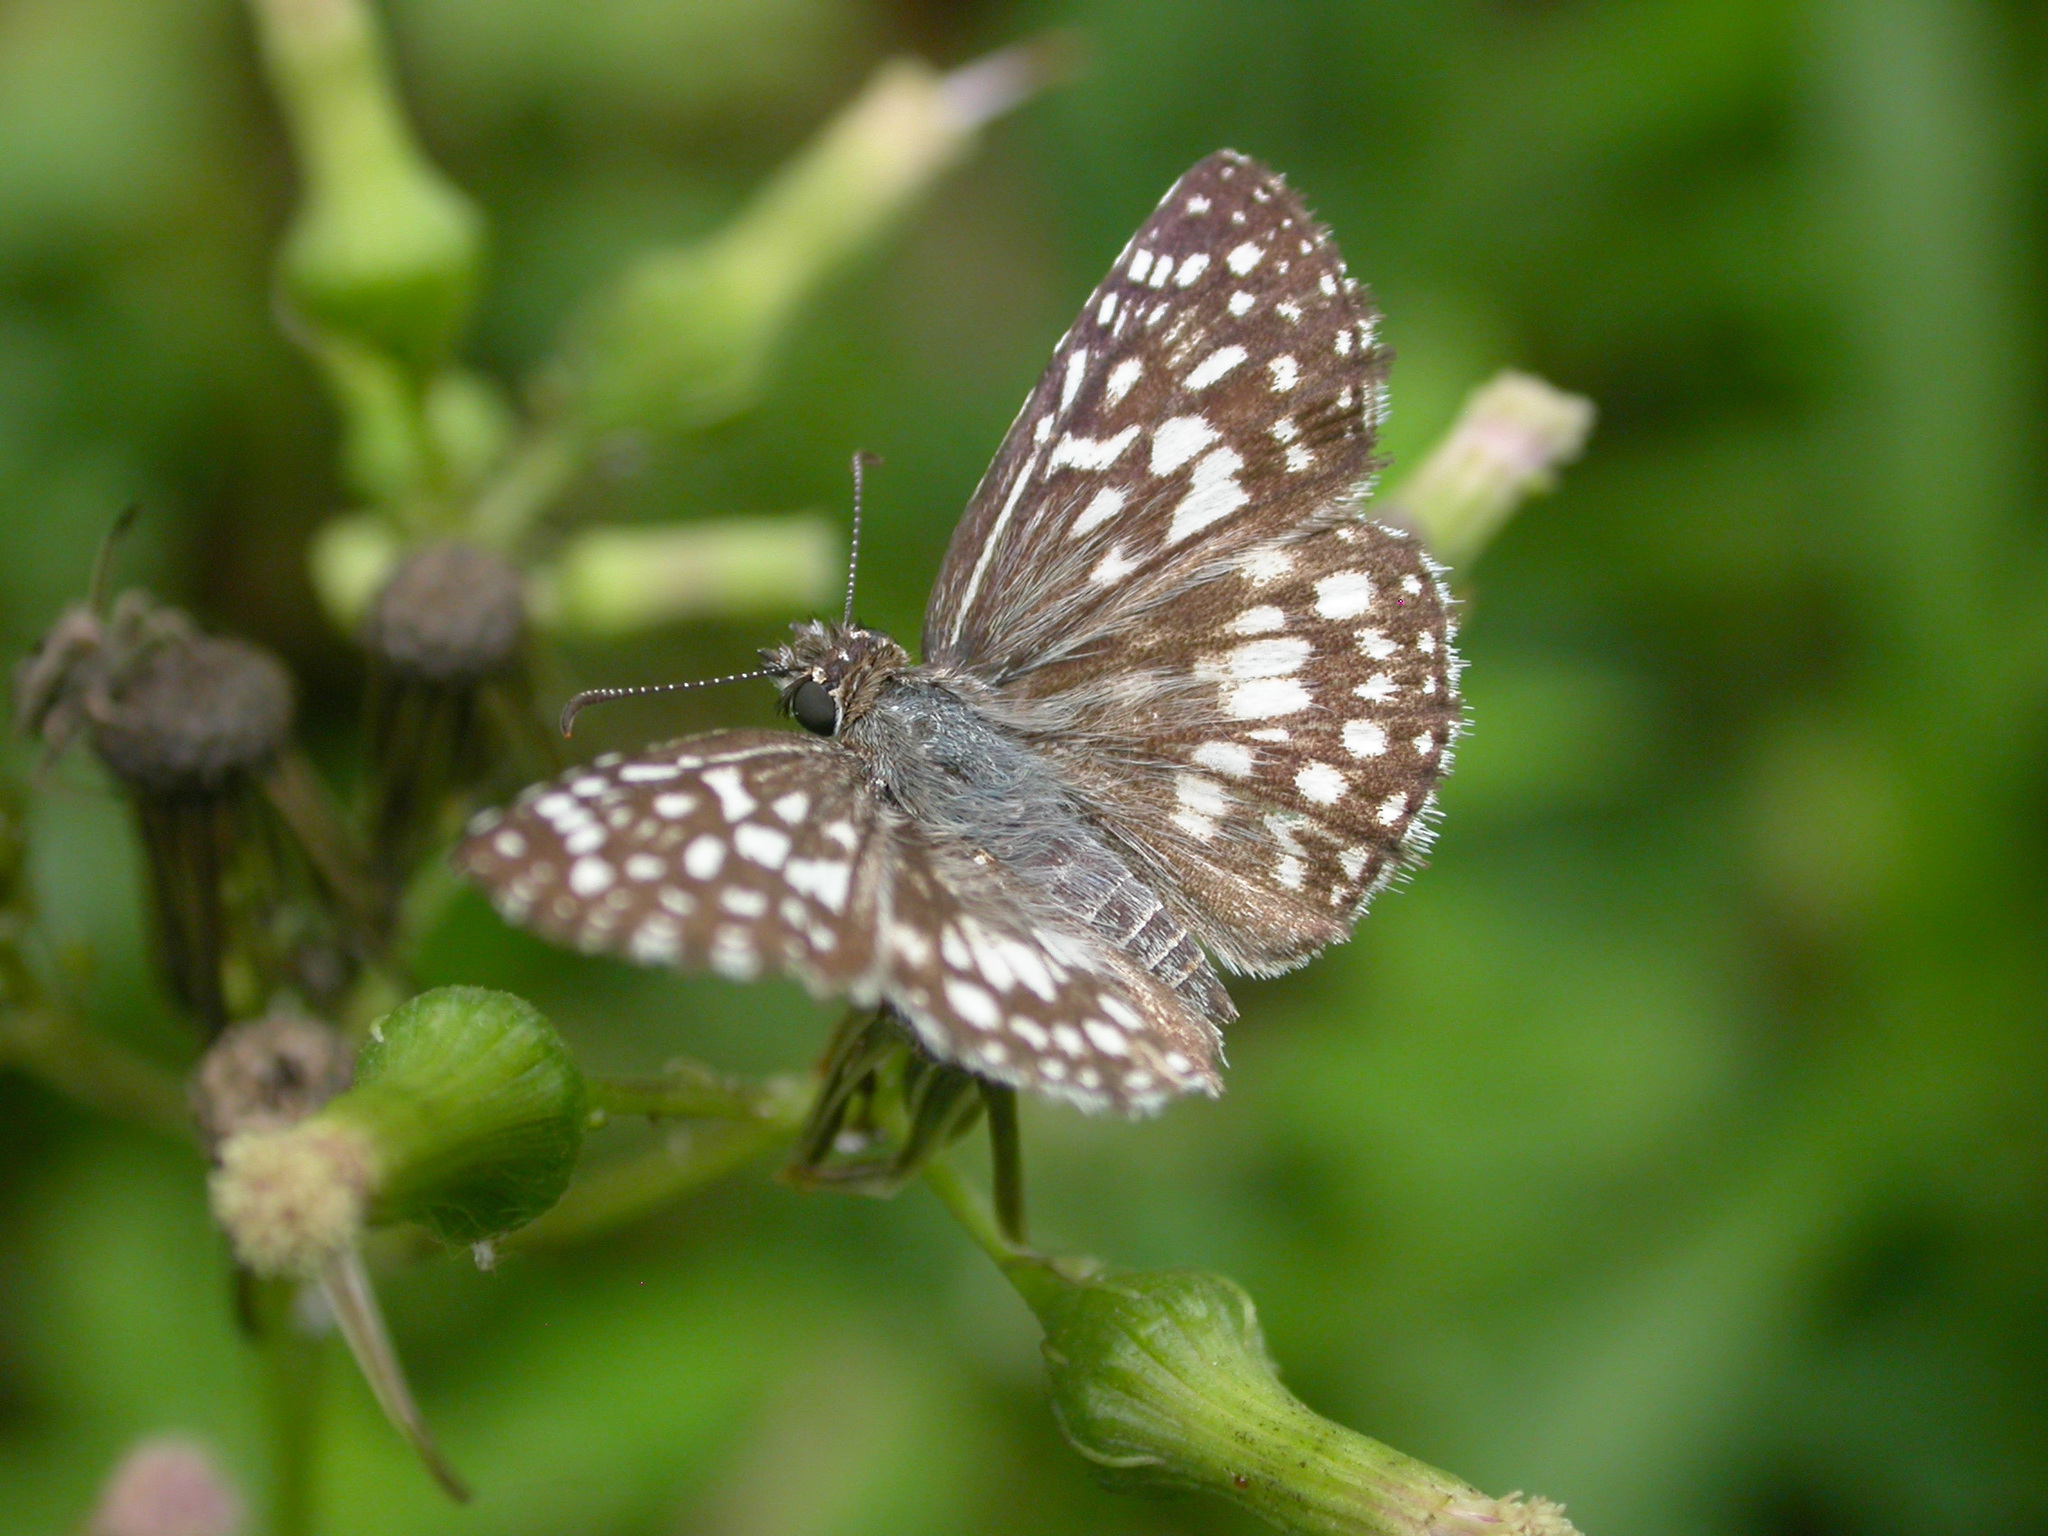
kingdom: Animalia
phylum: Arthropoda
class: Insecta
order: Lepidoptera
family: Hesperiidae
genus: Pyrgus
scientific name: Pyrgus oileus
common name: Tropical checkered-skipper
